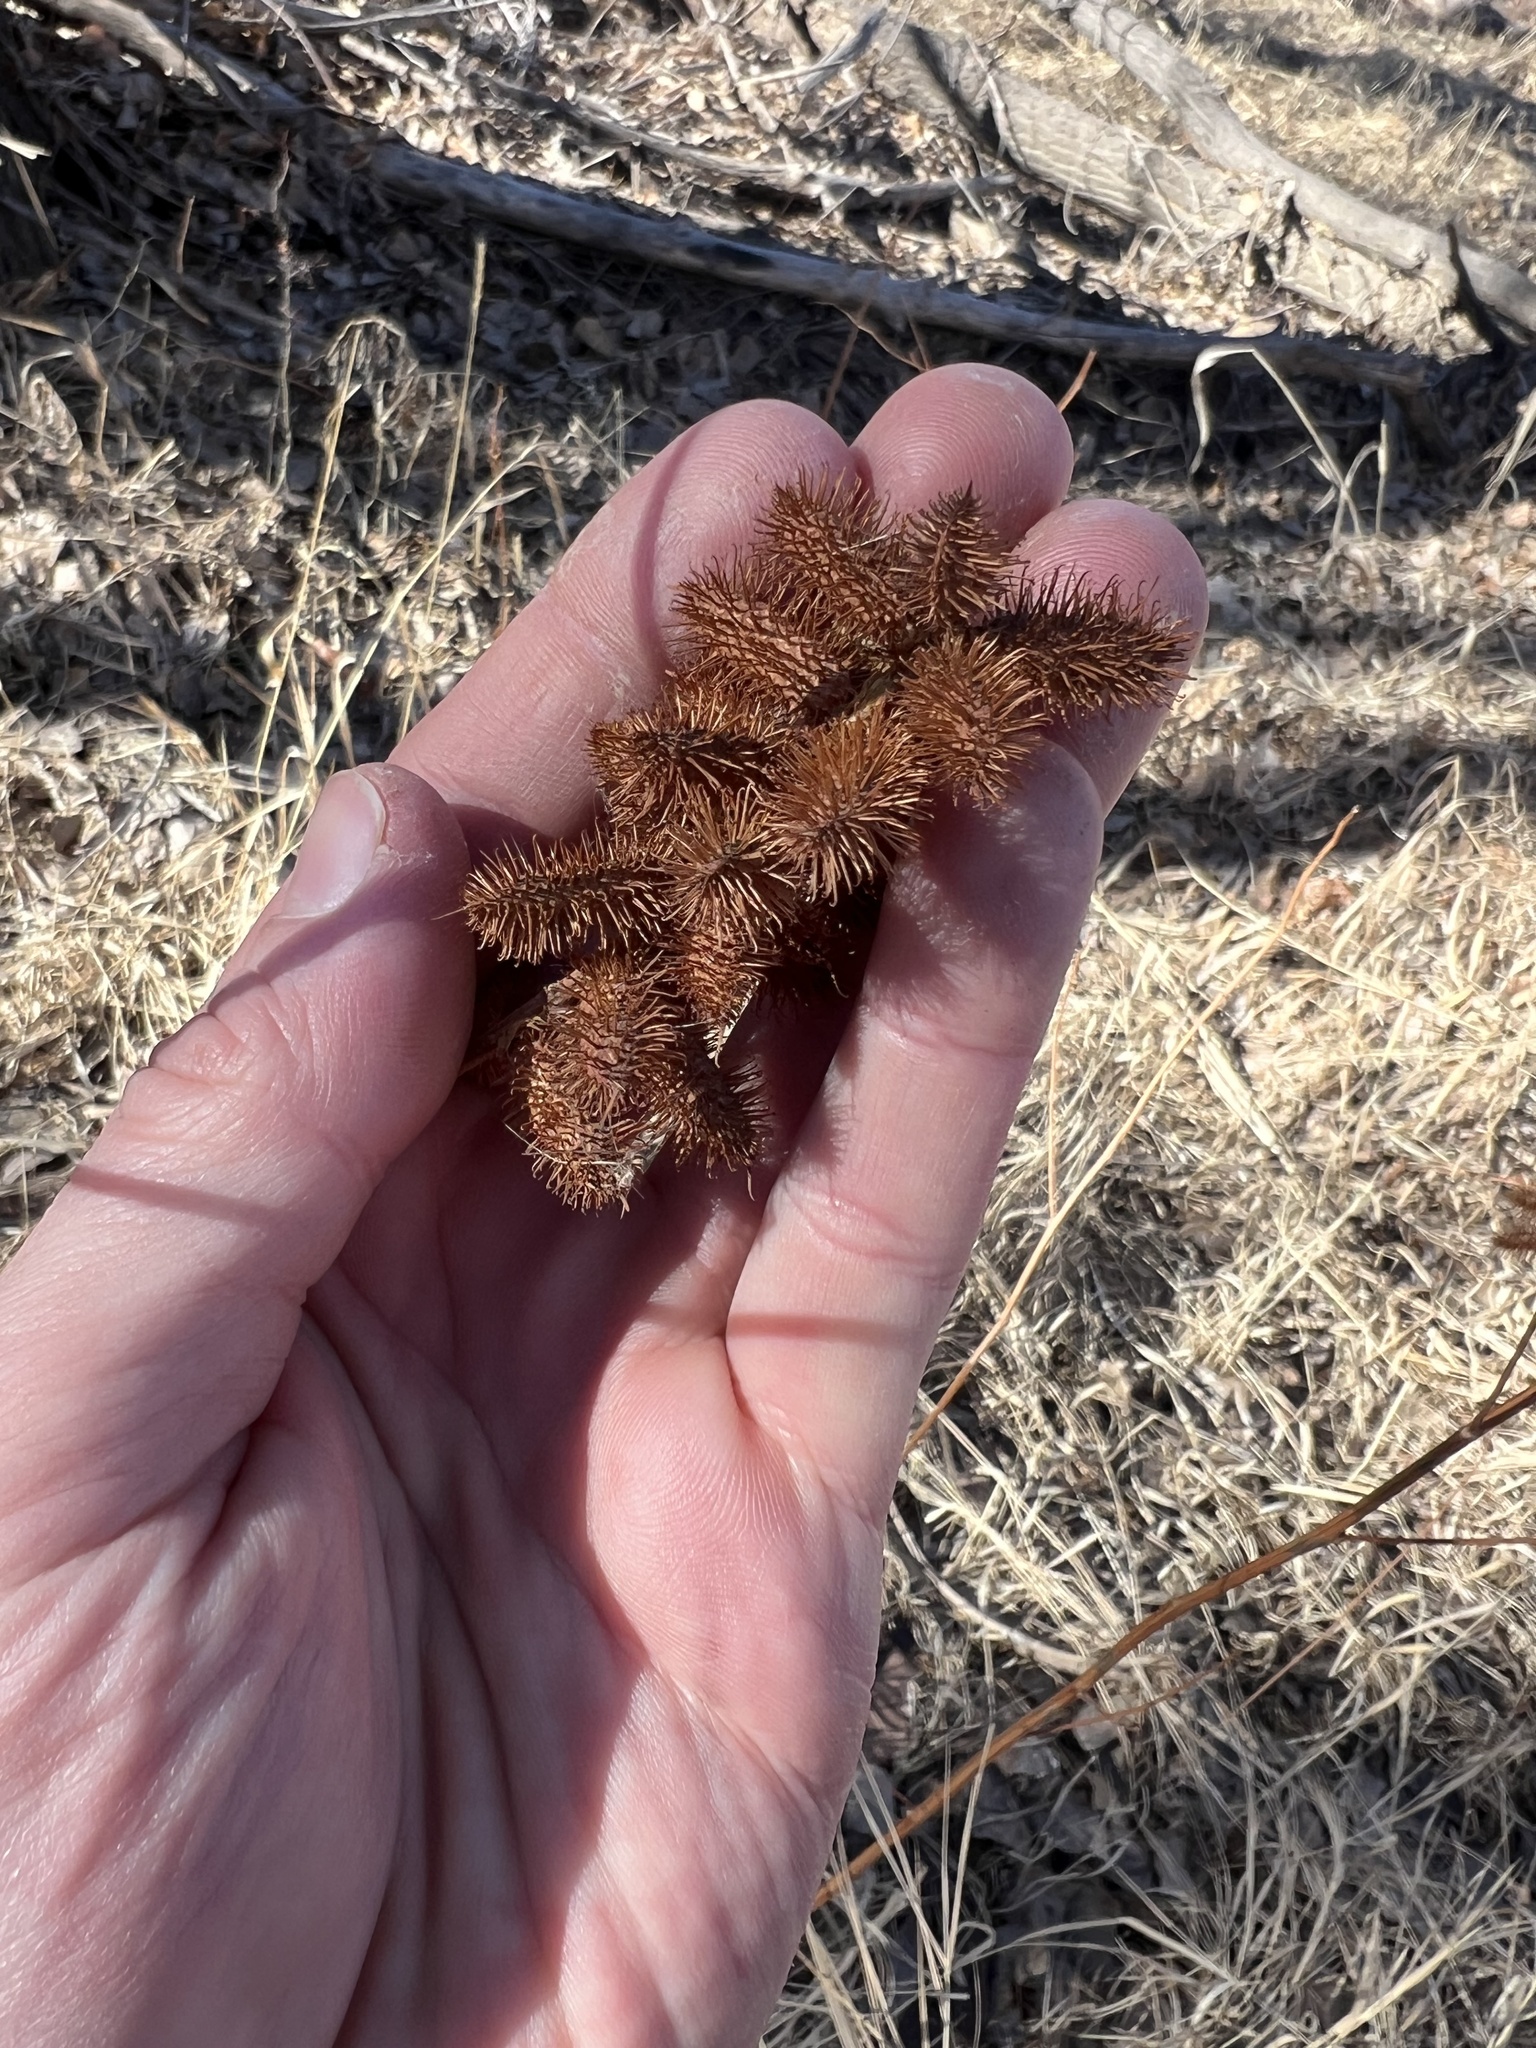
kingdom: Plantae
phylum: Tracheophyta
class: Magnoliopsida
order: Fabales
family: Fabaceae
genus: Glycyrrhiza
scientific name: Glycyrrhiza lepidota
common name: American liquorice
